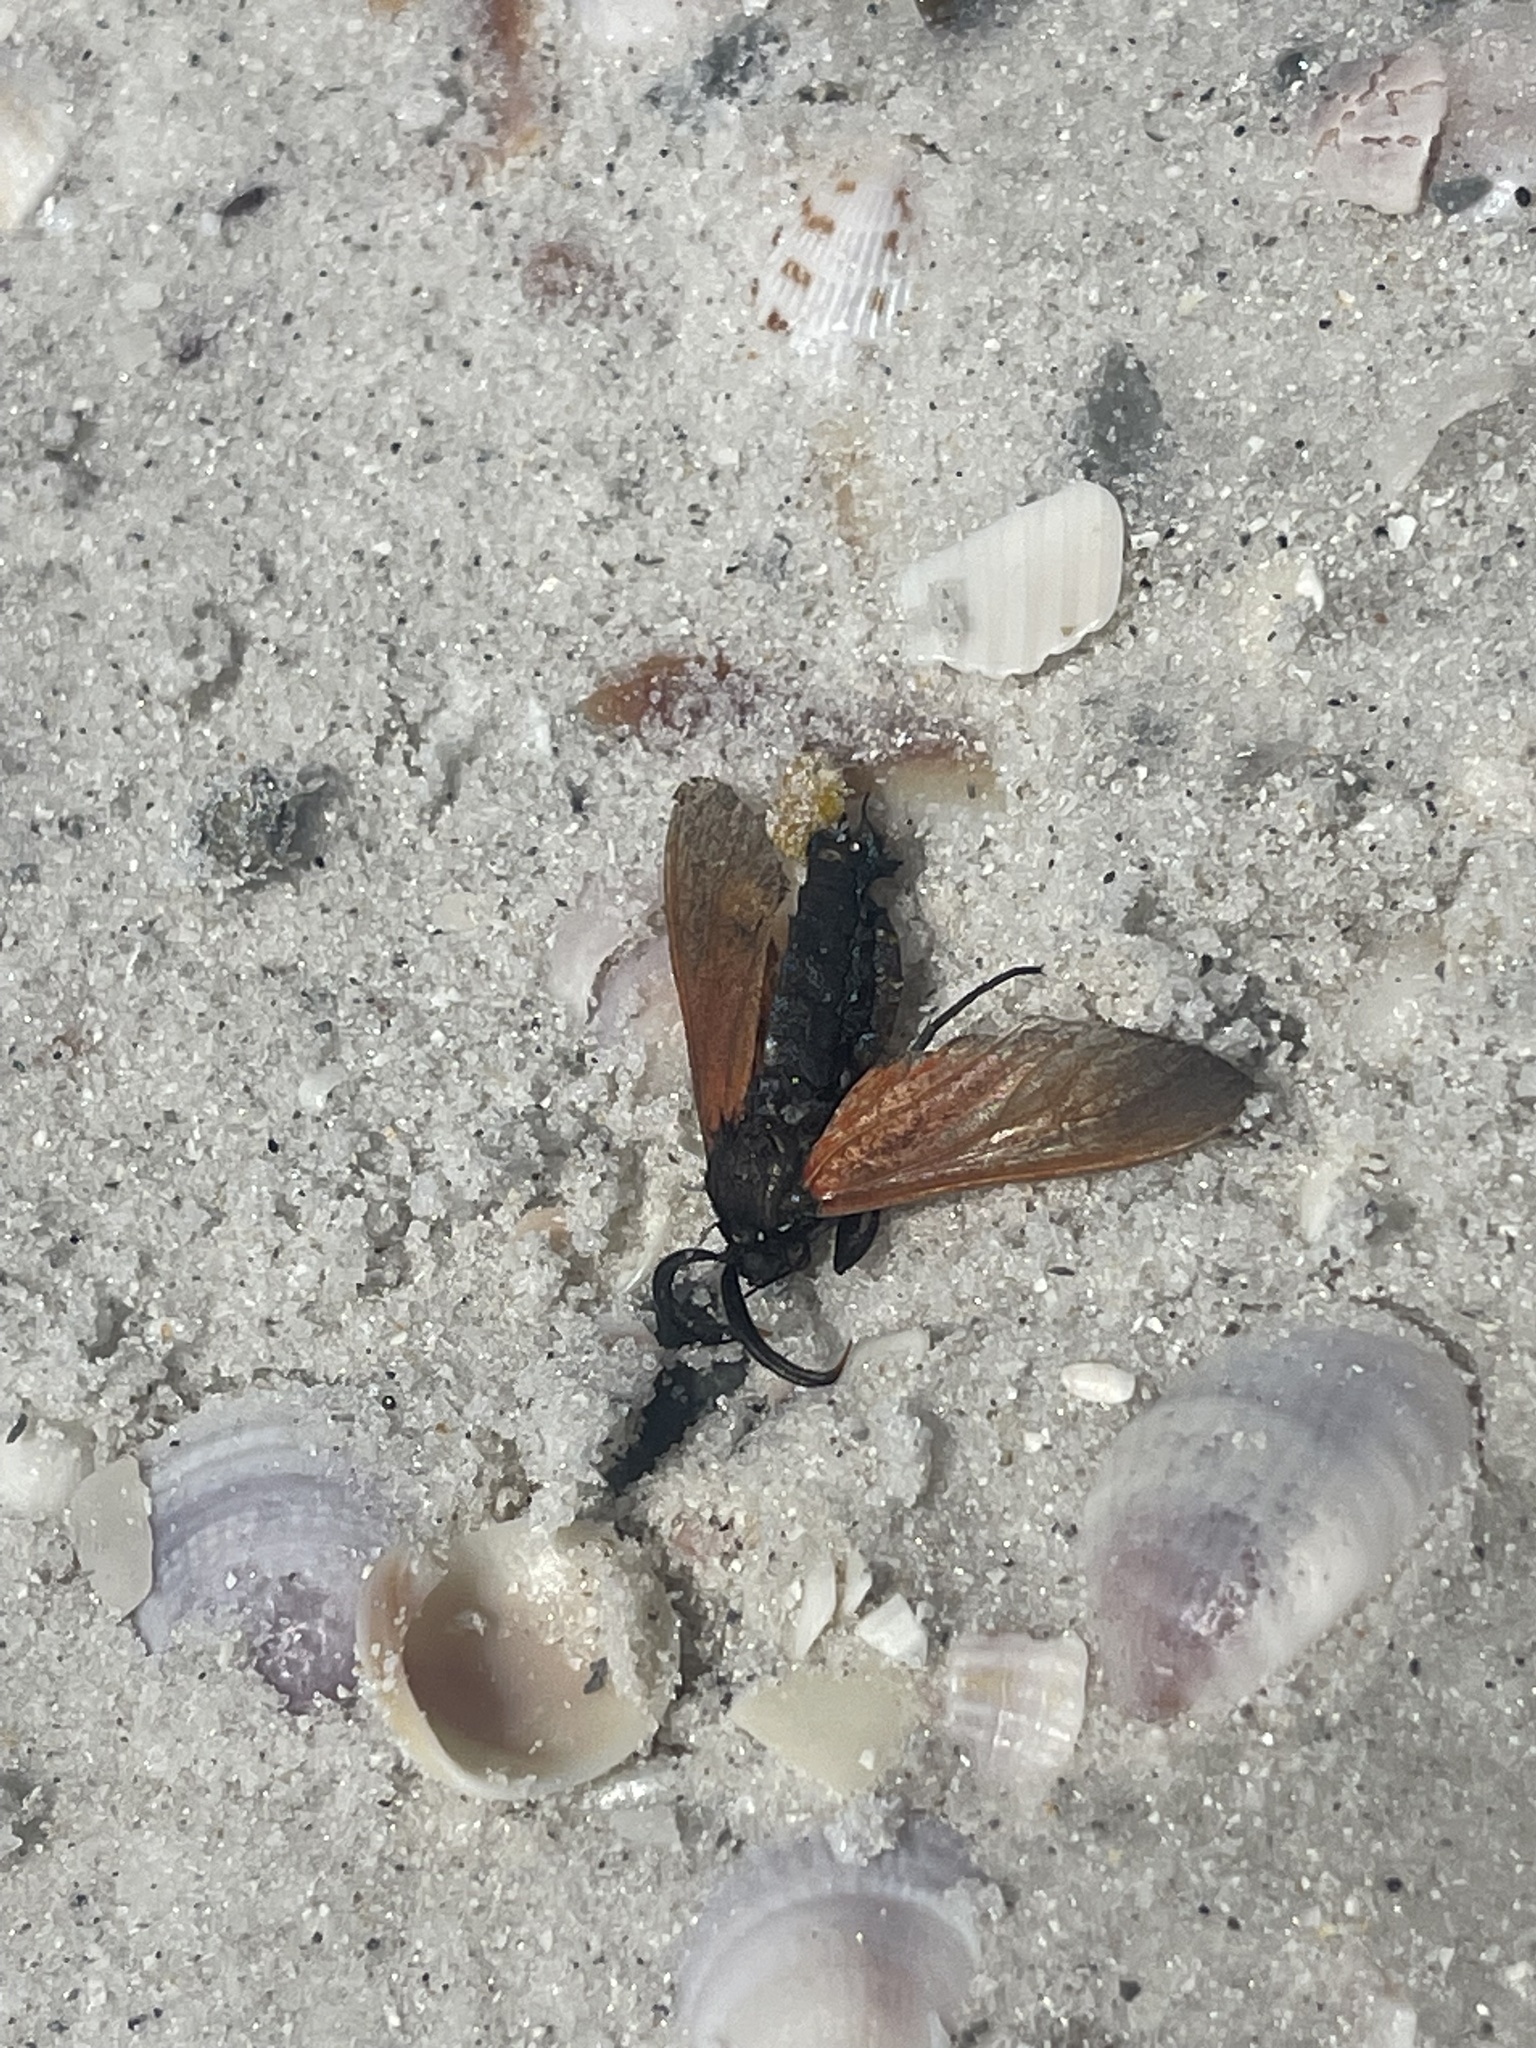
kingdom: Animalia
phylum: Arthropoda
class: Insecta
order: Lepidoptera
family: Erebidae
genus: Empyreuma
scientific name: Empyreuma pugione
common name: Spotted oleander caterpillar moth
